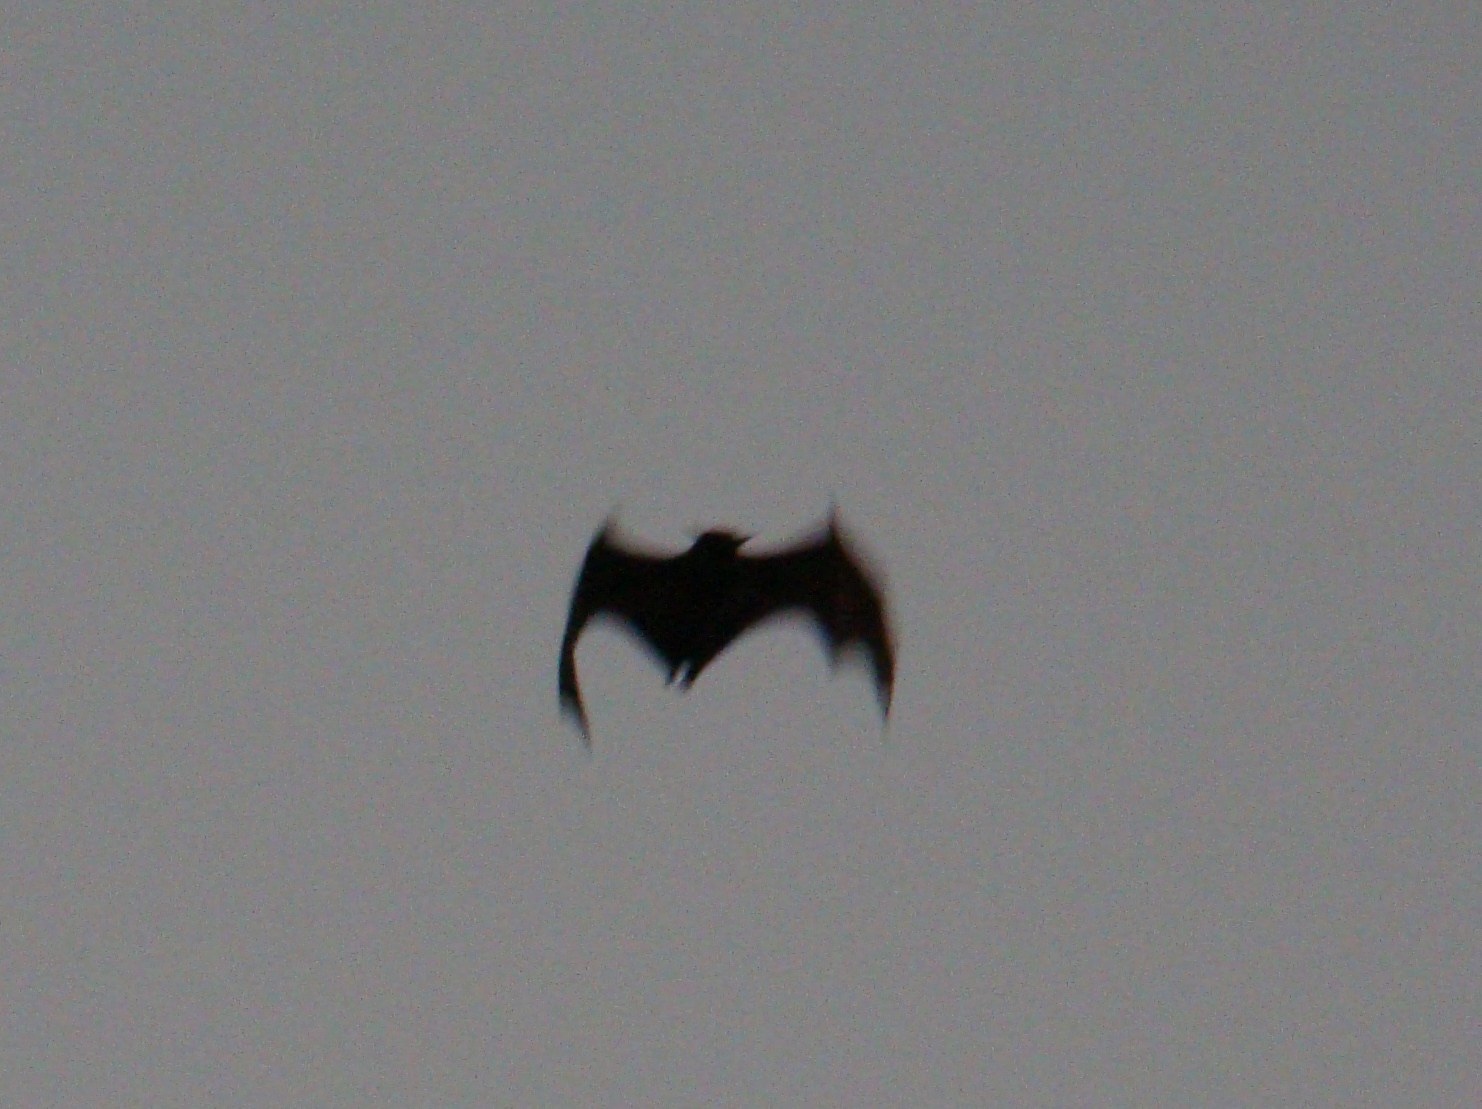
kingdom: Animalia
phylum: Chordata
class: Mammalia
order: Chiroptera
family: Pteropodidae
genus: Eidolon
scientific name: Eidolon helvum
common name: Straw-colored fruit bat
